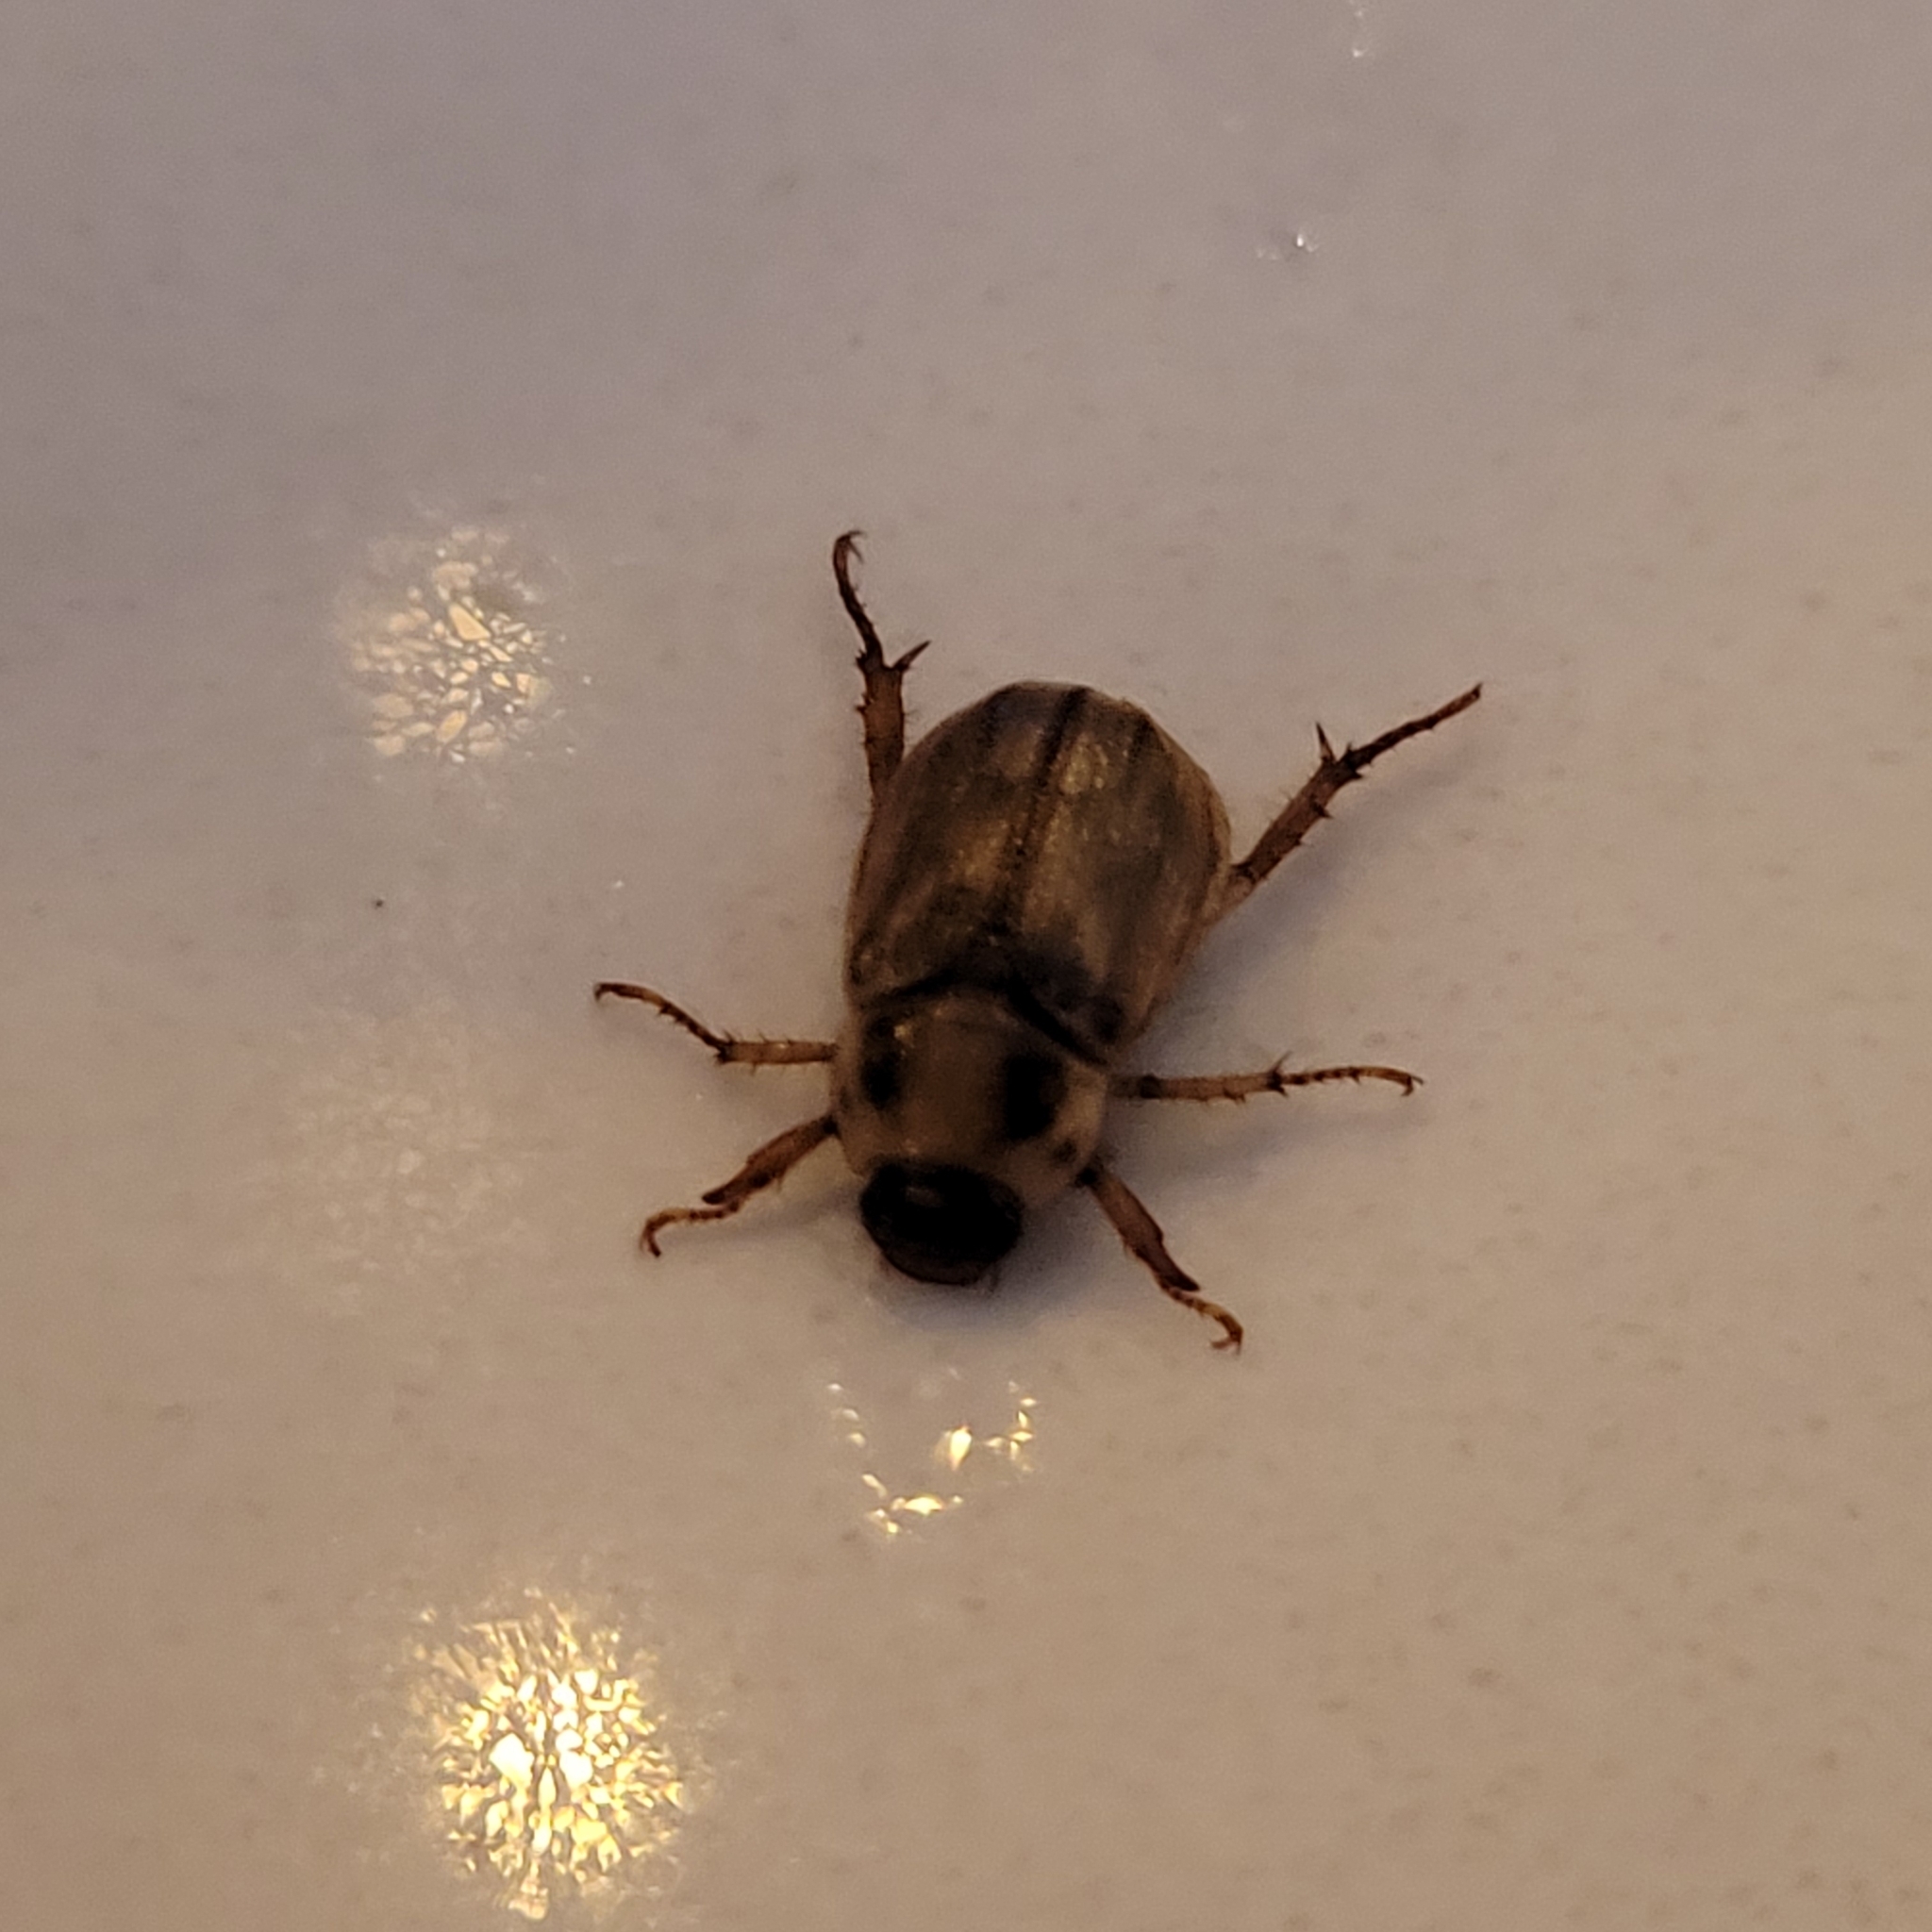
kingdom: Animalia
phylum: Arthropoda
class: Insecta
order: Coleoptera
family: Scarabaeidae
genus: Exomala
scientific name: Exomala orientalis
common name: Oriental beetle
